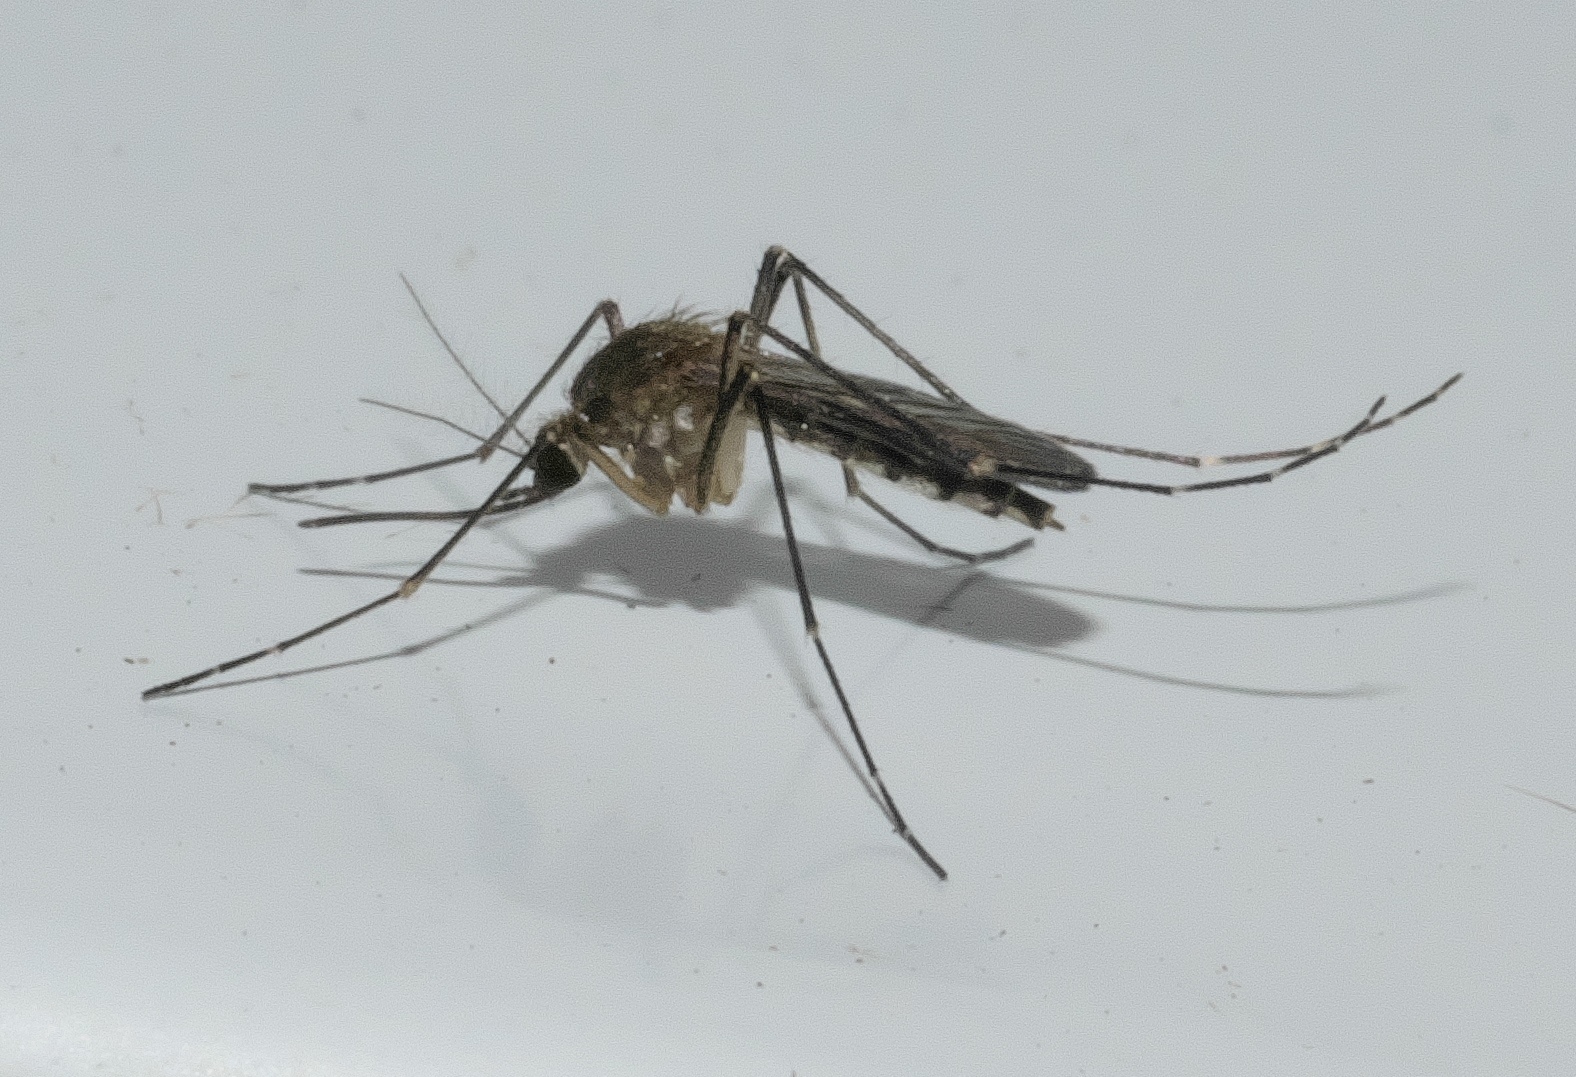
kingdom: Animalia
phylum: Arthropoda
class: Insecta
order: Diptera
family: Culicidae
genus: Aedes
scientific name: Aedes vexans
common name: Inland floodwater mosquito
